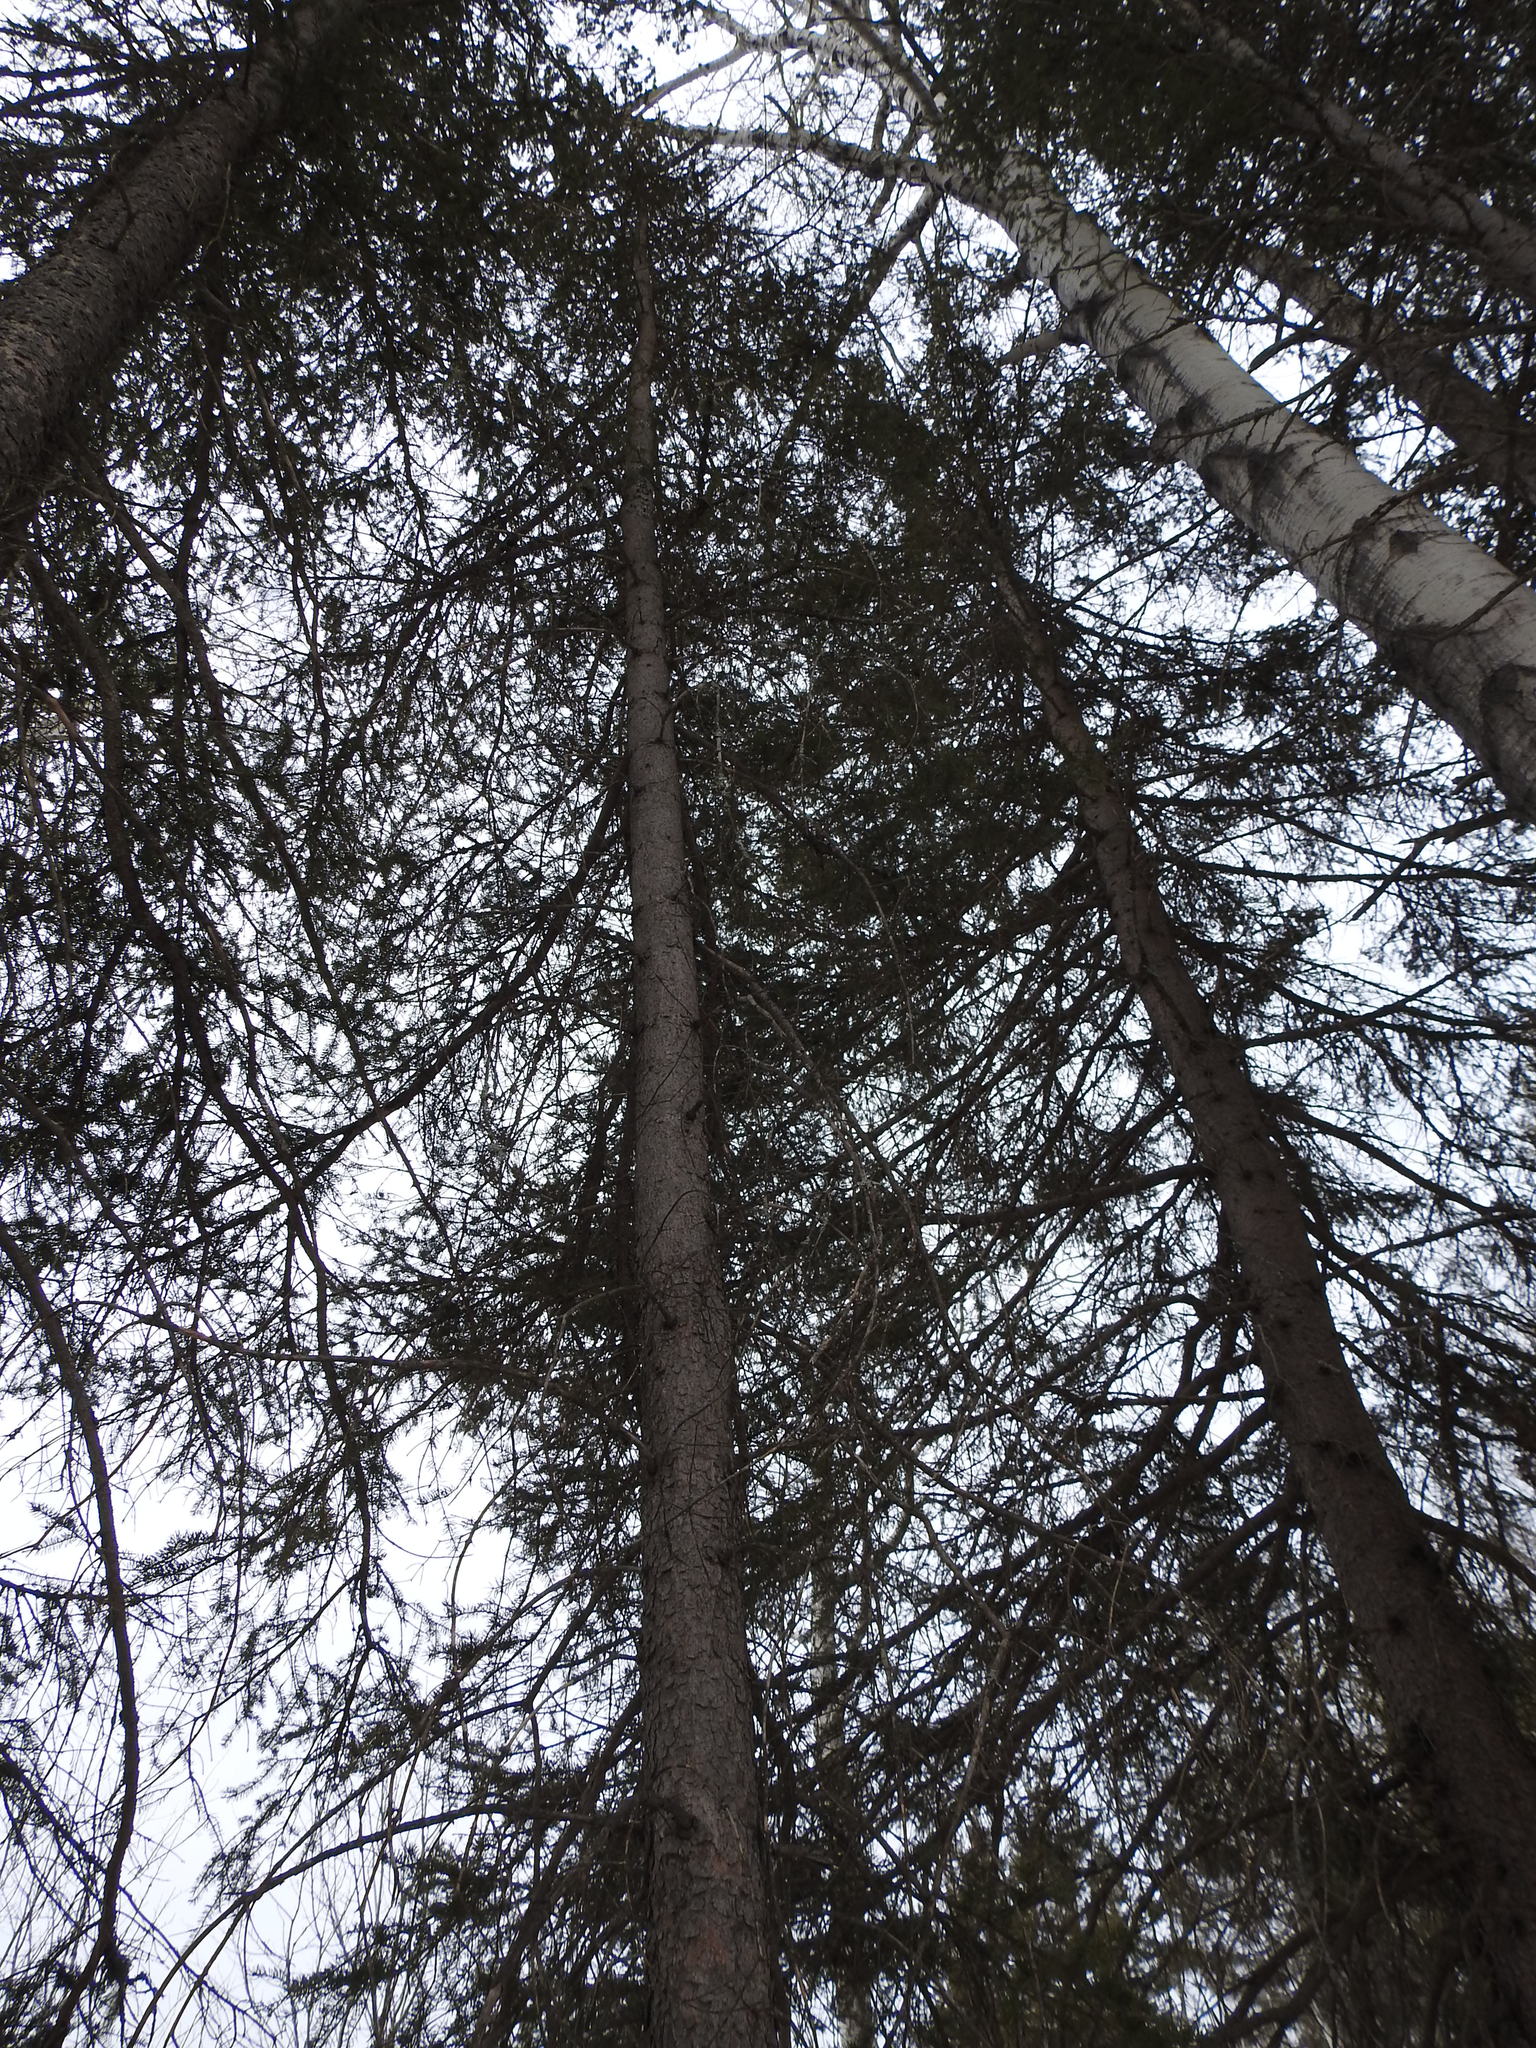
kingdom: Plantae
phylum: Tracheophyta
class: Pinopsida
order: Pinales
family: Pinaceae
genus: Picea
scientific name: Picea glauca
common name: White spruce
